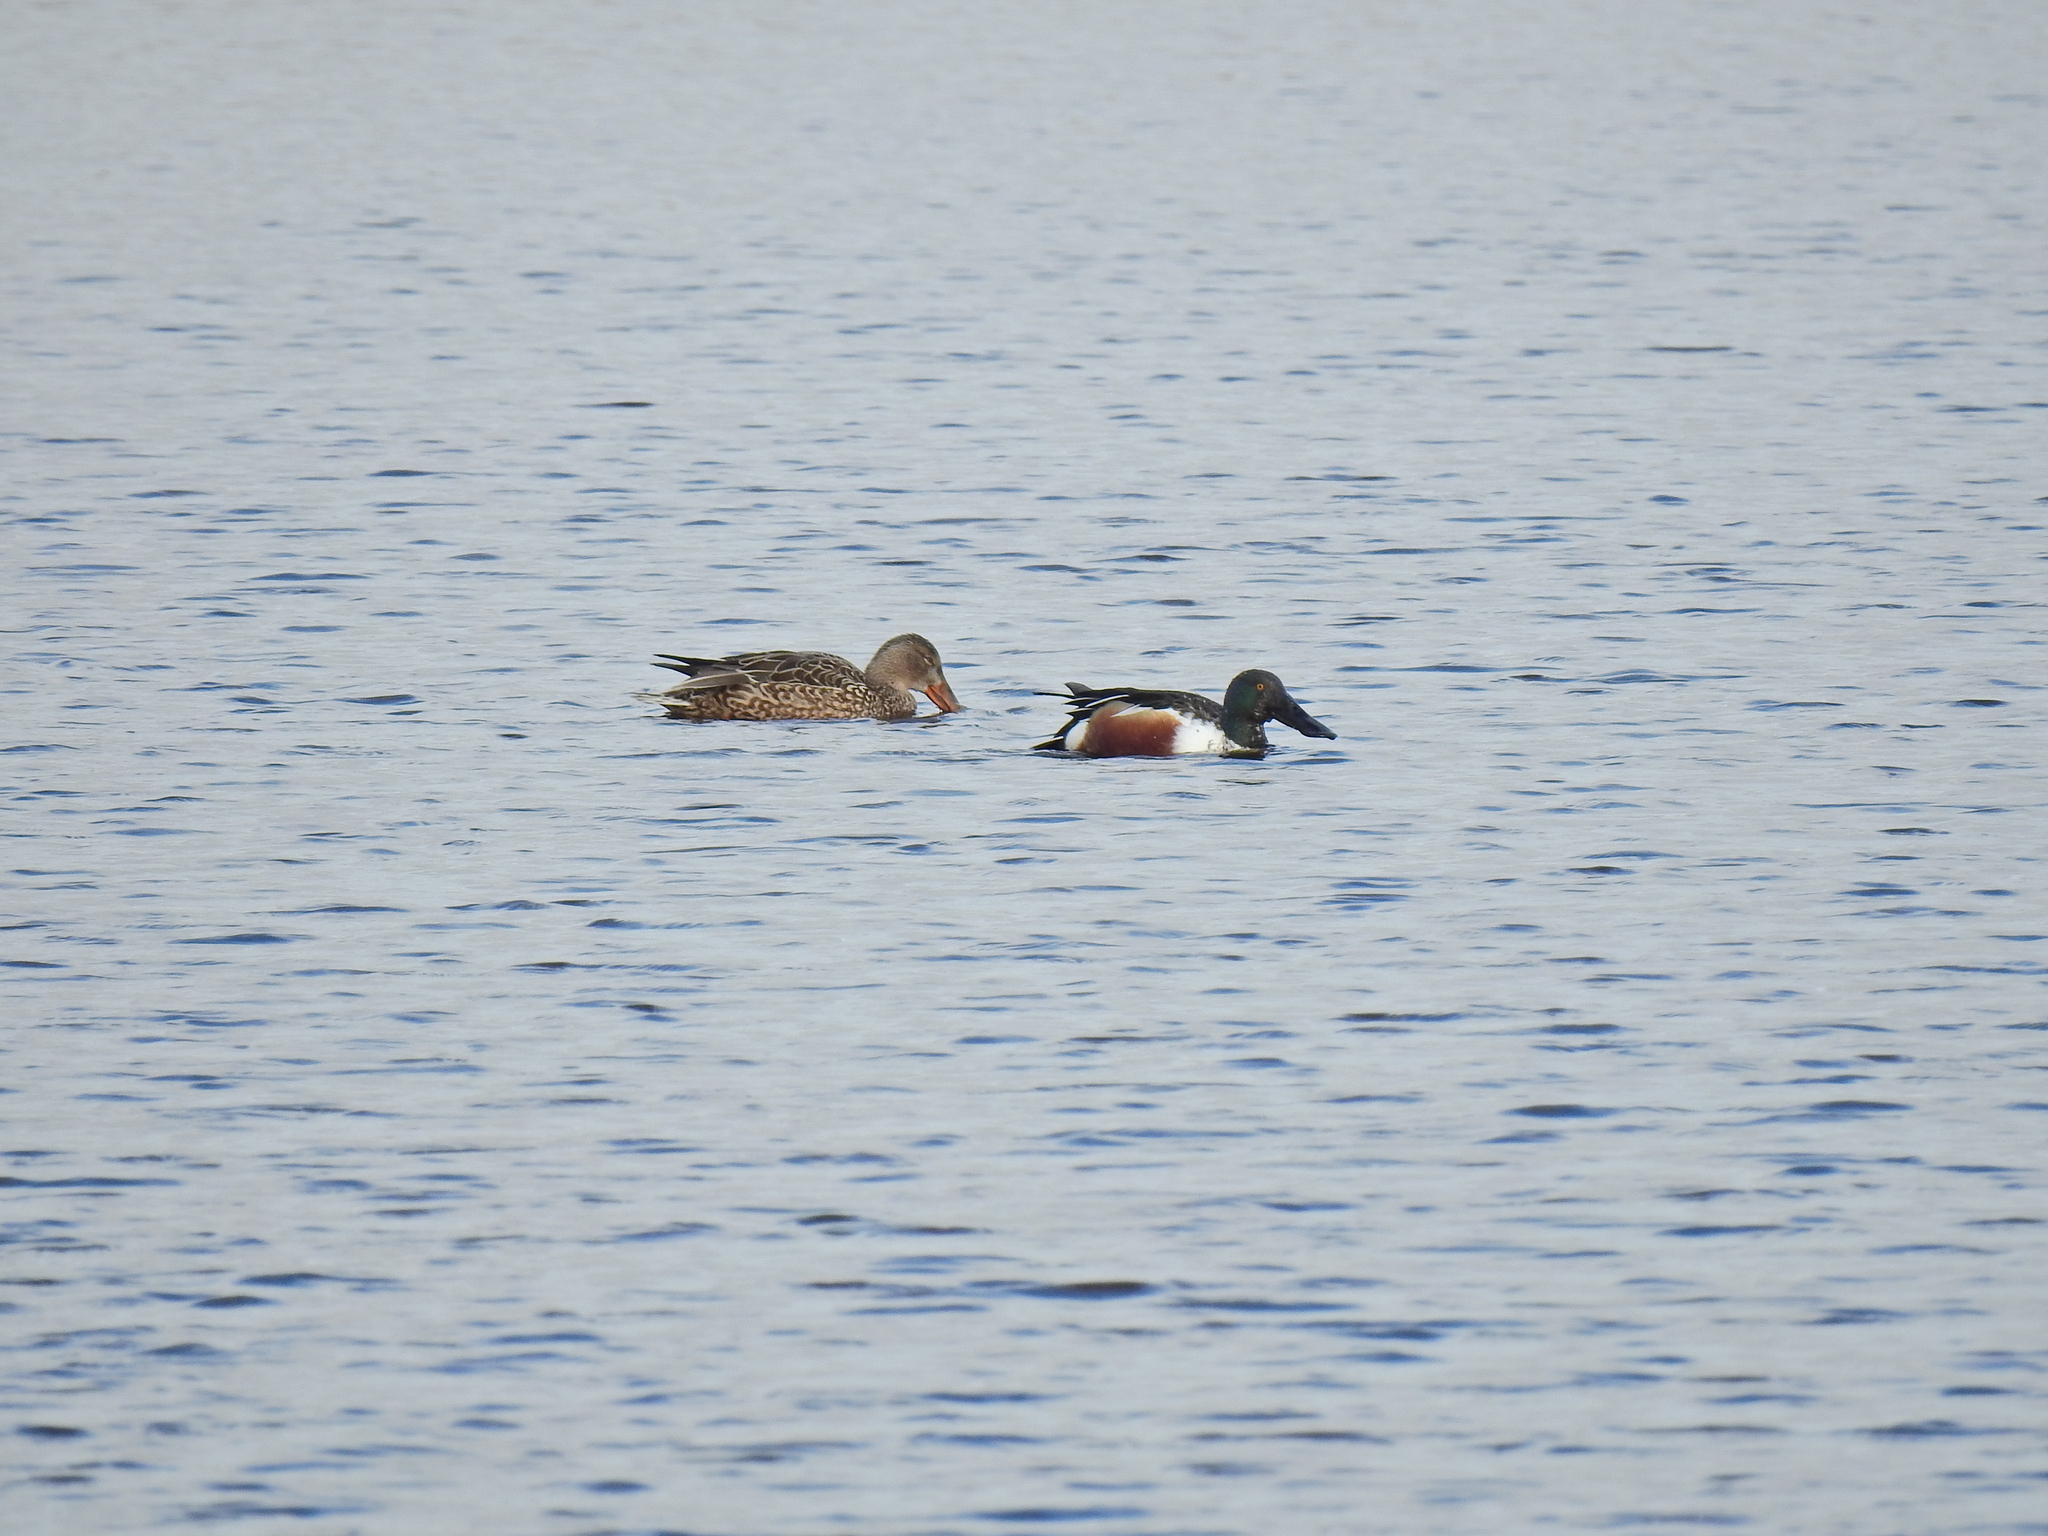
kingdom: Animalia
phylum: Chordata
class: Aves
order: Anseriformes
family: Anatidae
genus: Spatula
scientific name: Spatula clypeata
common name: Northern shoveler
